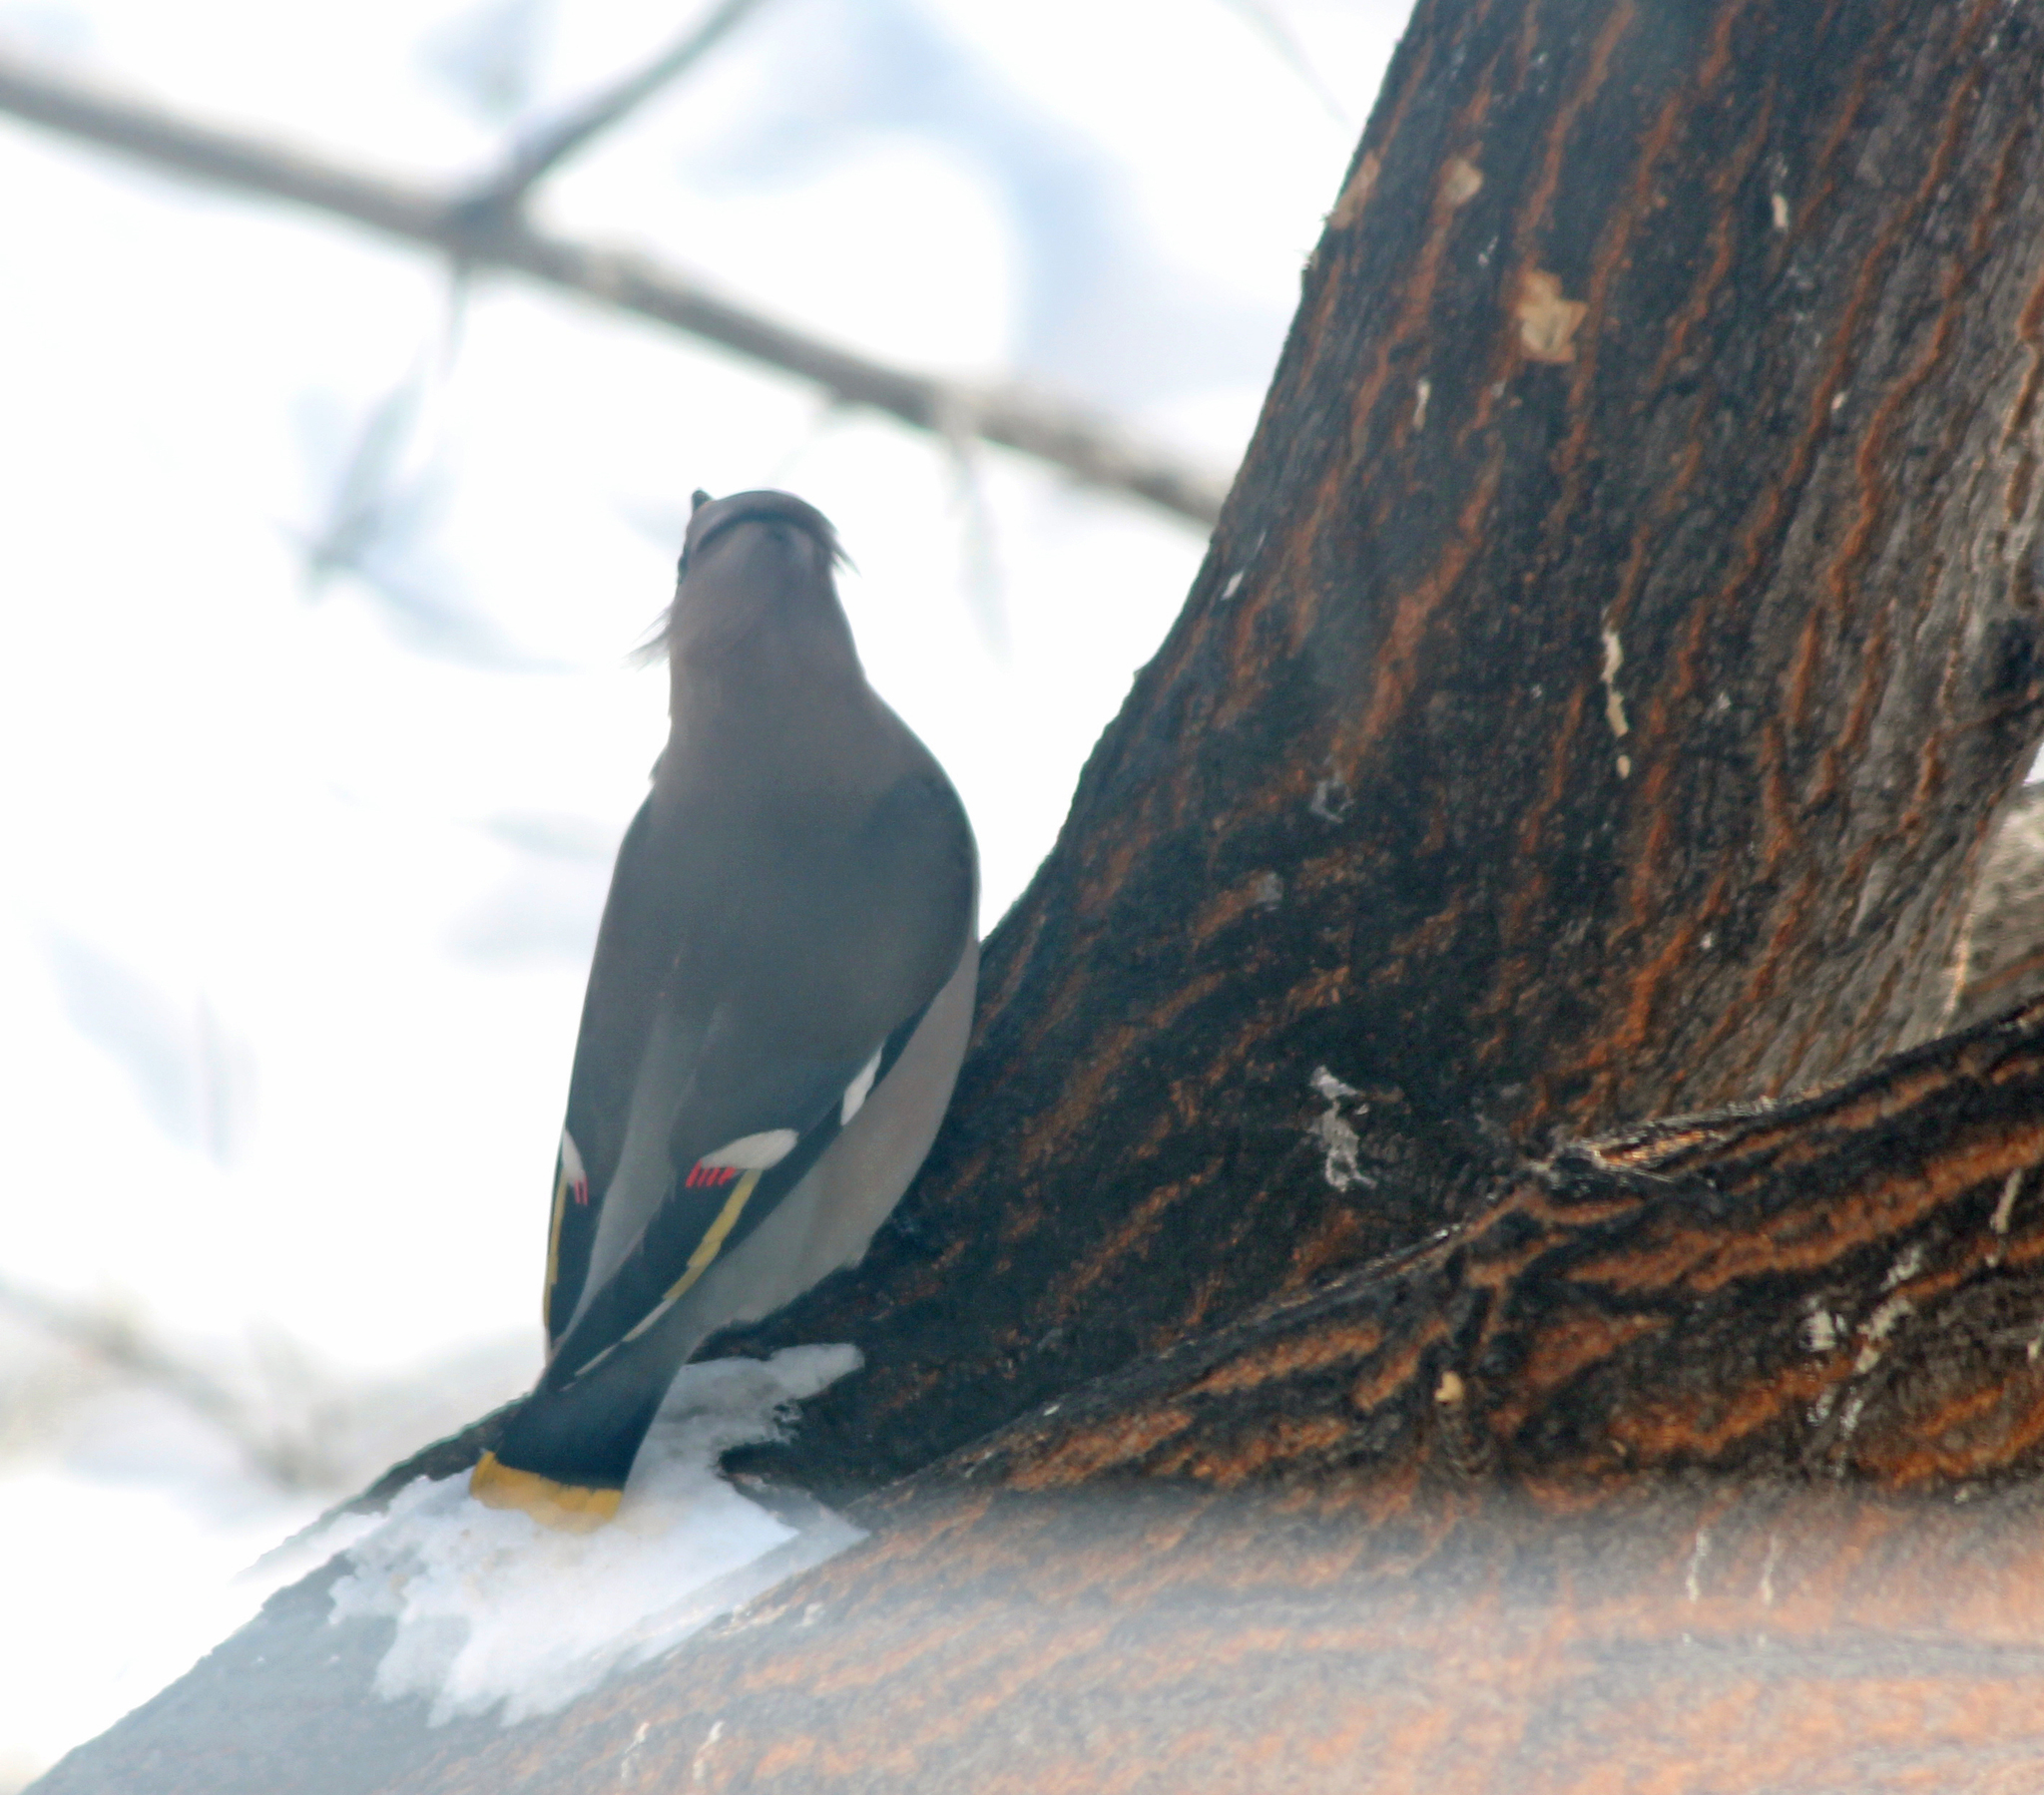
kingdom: Animalia
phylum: Chordata
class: Aves
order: Passeriformes
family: Bombycillidae
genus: Bombycilla
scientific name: Bombycilla garrulus
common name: Bohemian waxwing
